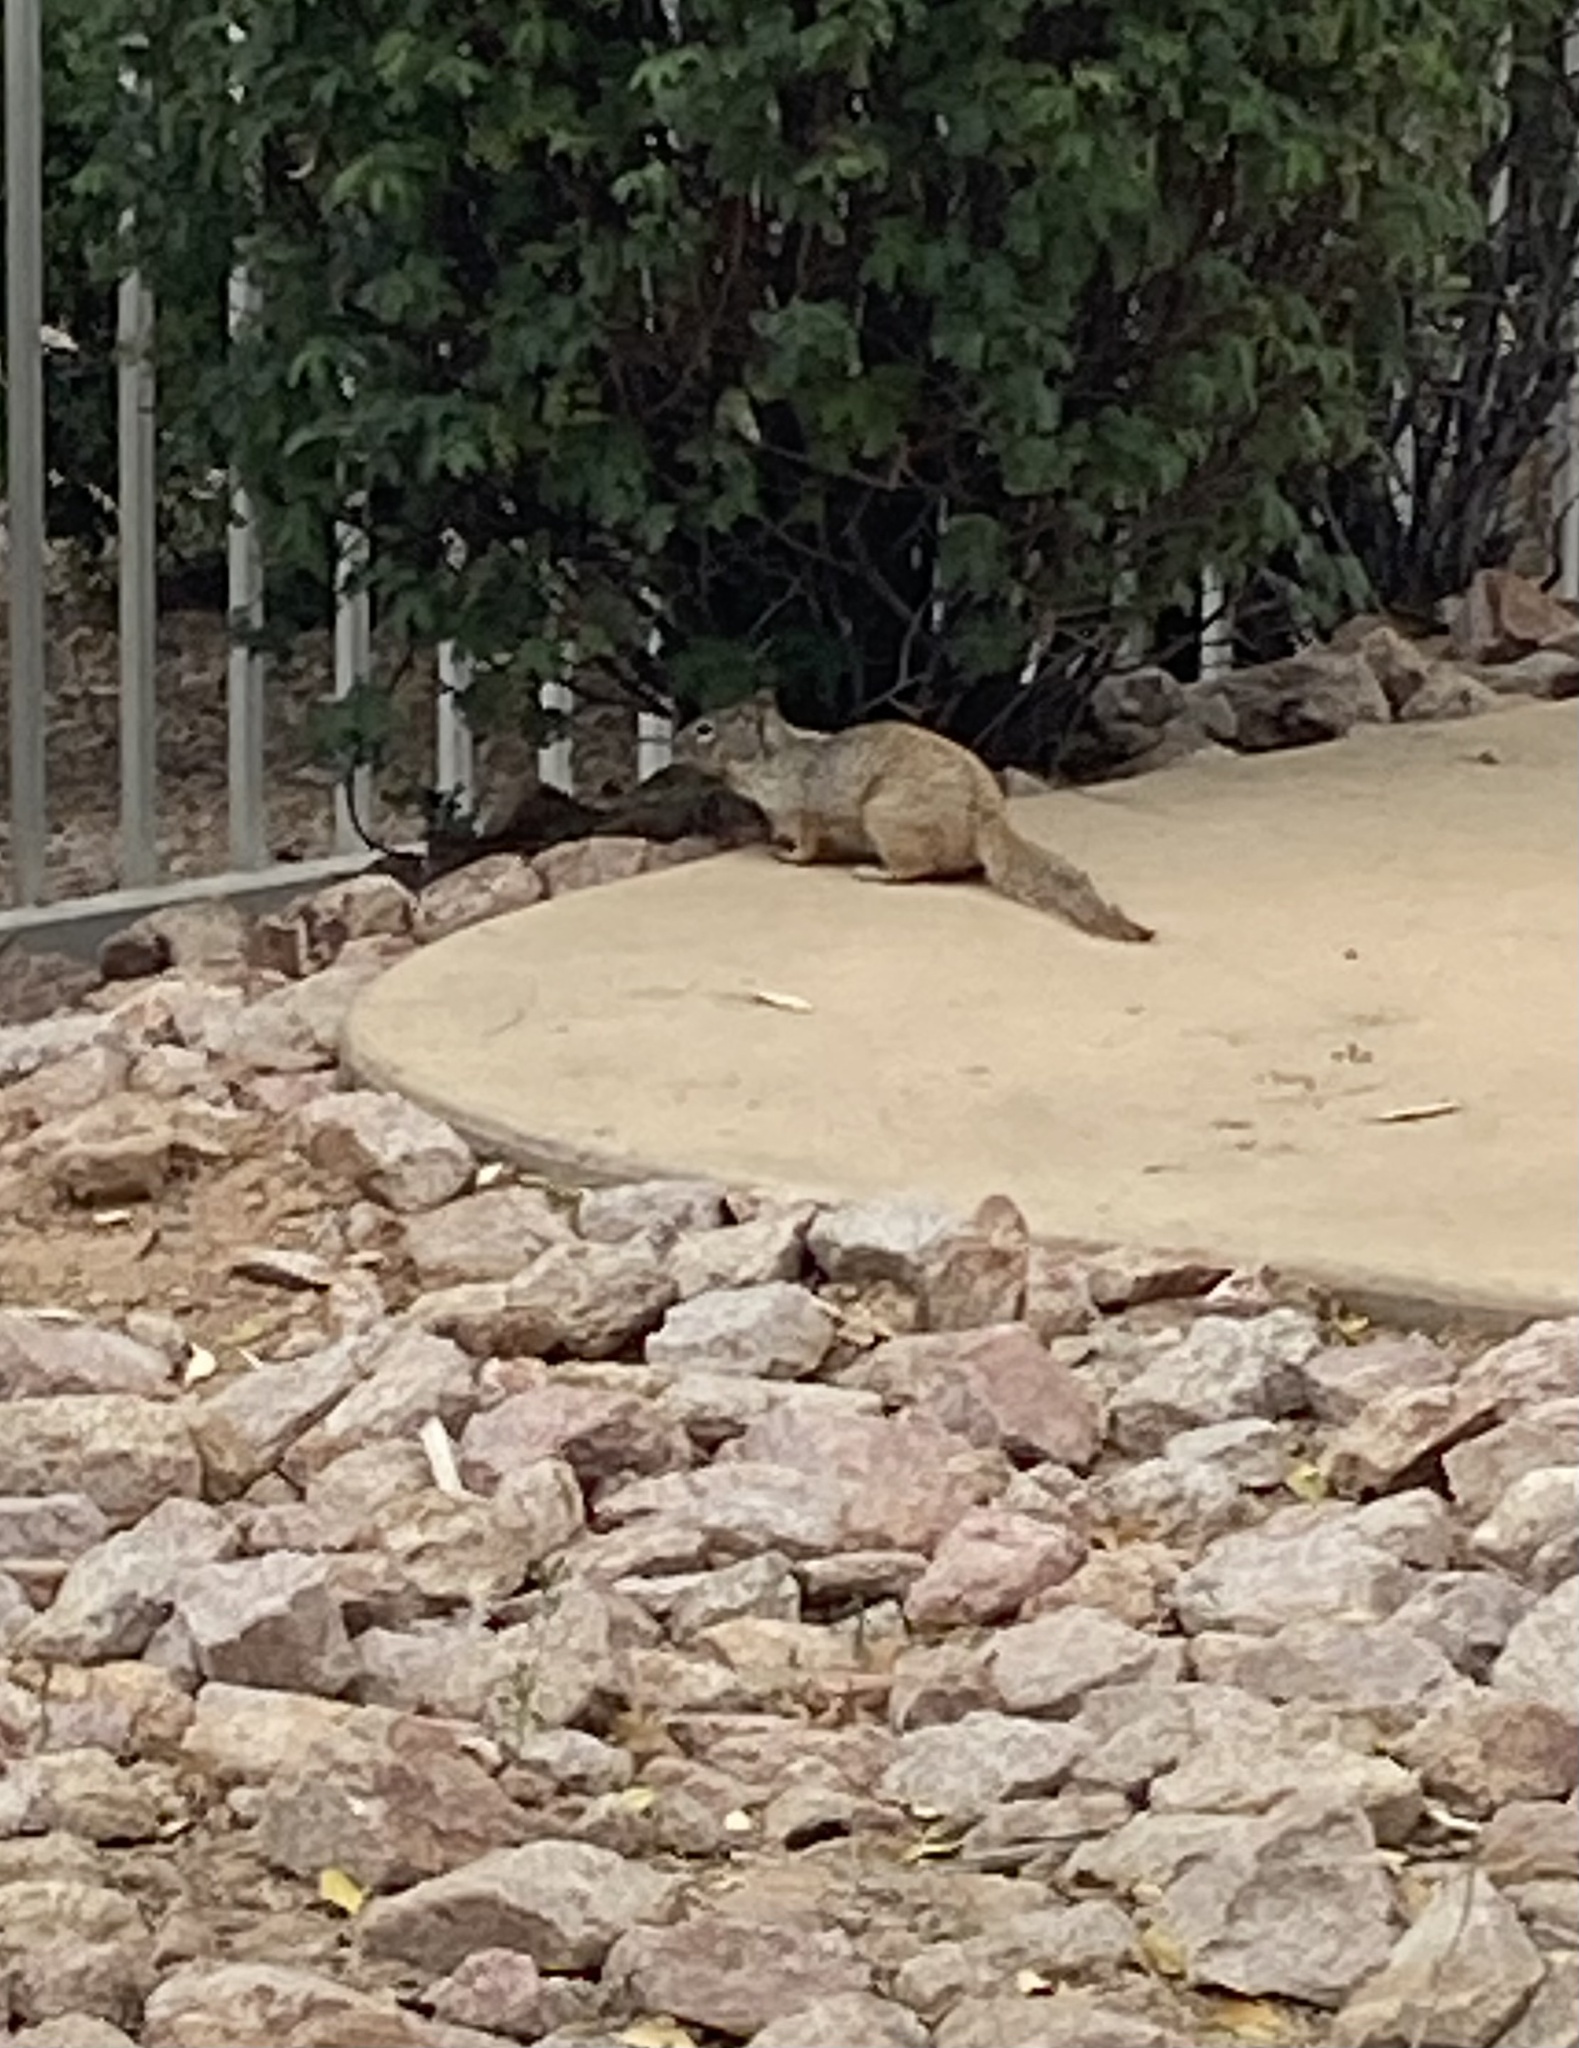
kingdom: Animalia
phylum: Chordata
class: Mammalia
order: Rodentia
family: Sciuridae
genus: Otospermophilus
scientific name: Otospermophilus variegatus
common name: Rock squirrel
